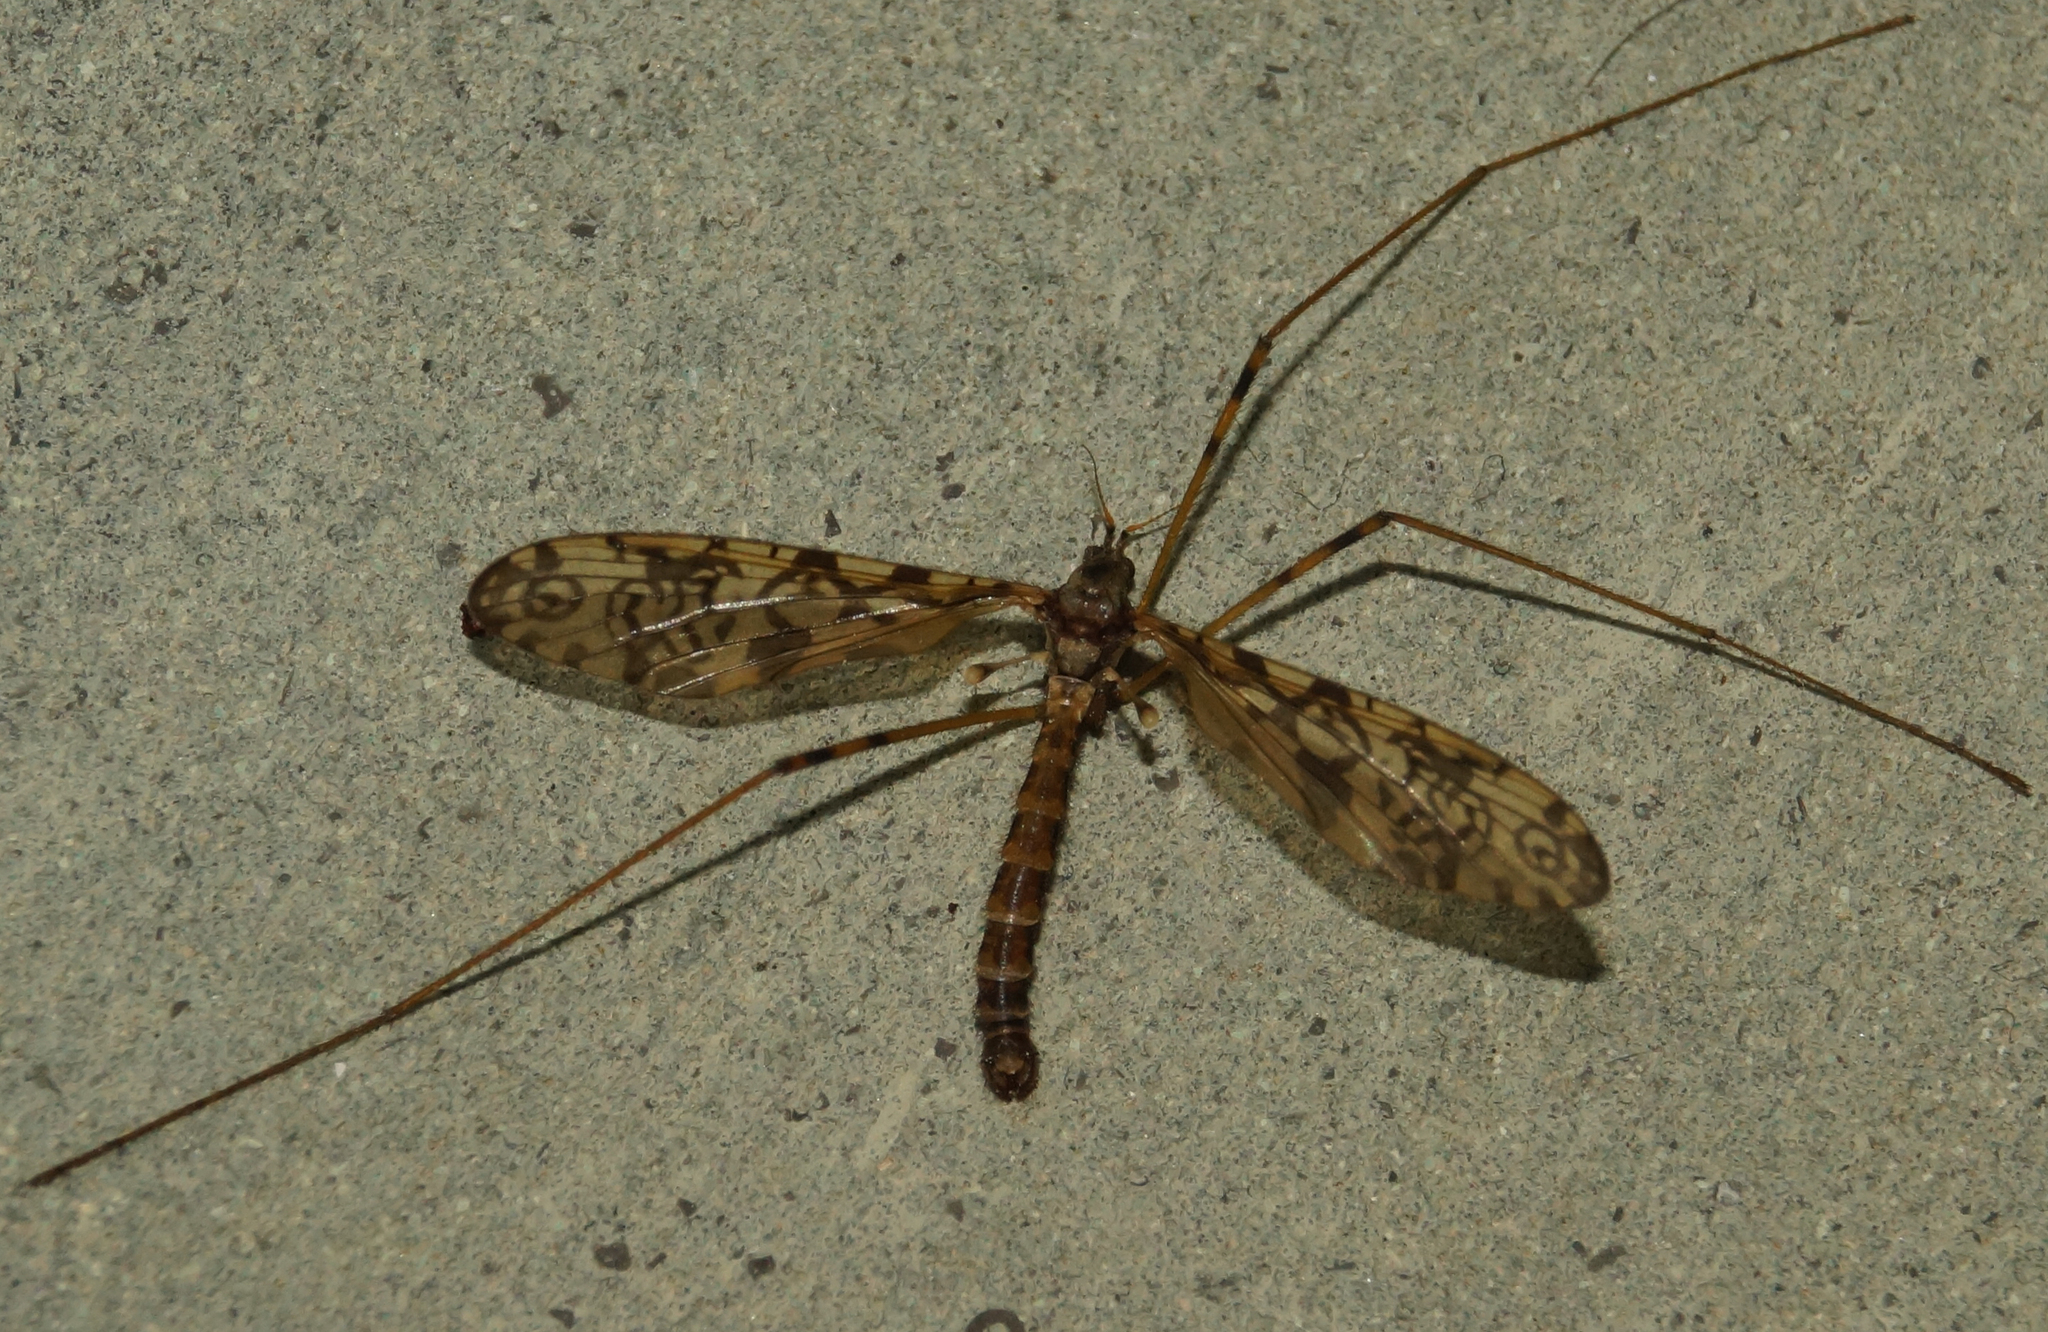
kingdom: Animalia
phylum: Arthropoda
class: Insecta
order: Diptera
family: Limoniidae
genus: Epiphragma
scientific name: Epiphragma ocellare
